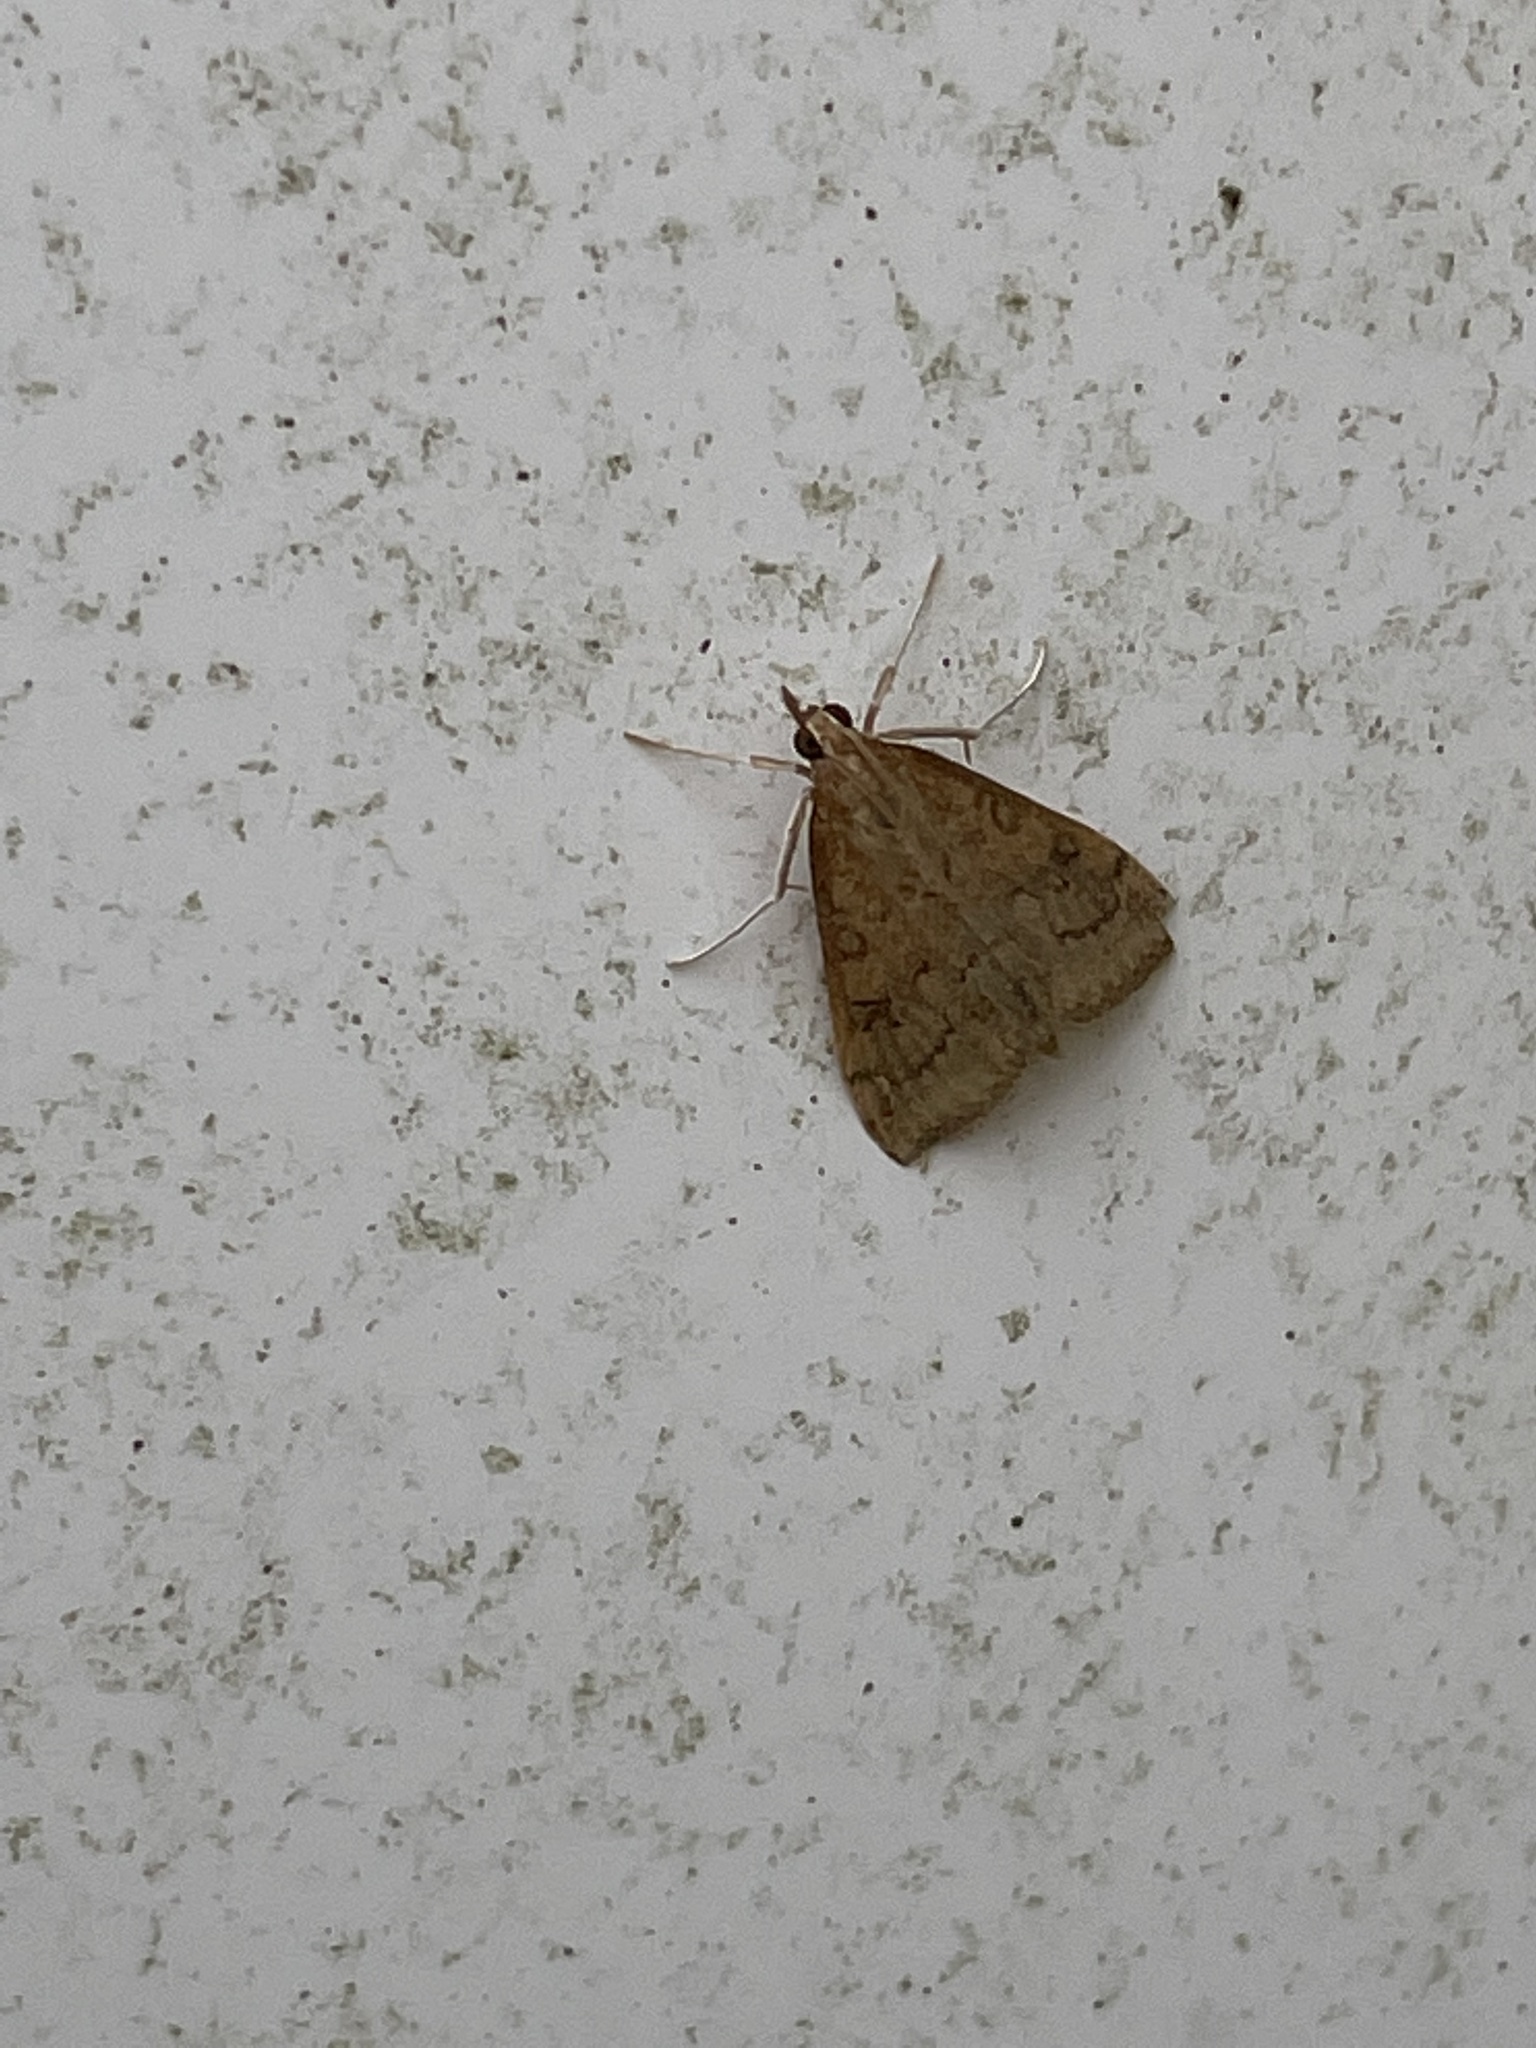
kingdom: Animalia
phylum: Arthropoda
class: Insecta
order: Lepidoptera
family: Crambidae
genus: Udea
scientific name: Udea rubigalis
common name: Celery leaftier moth
